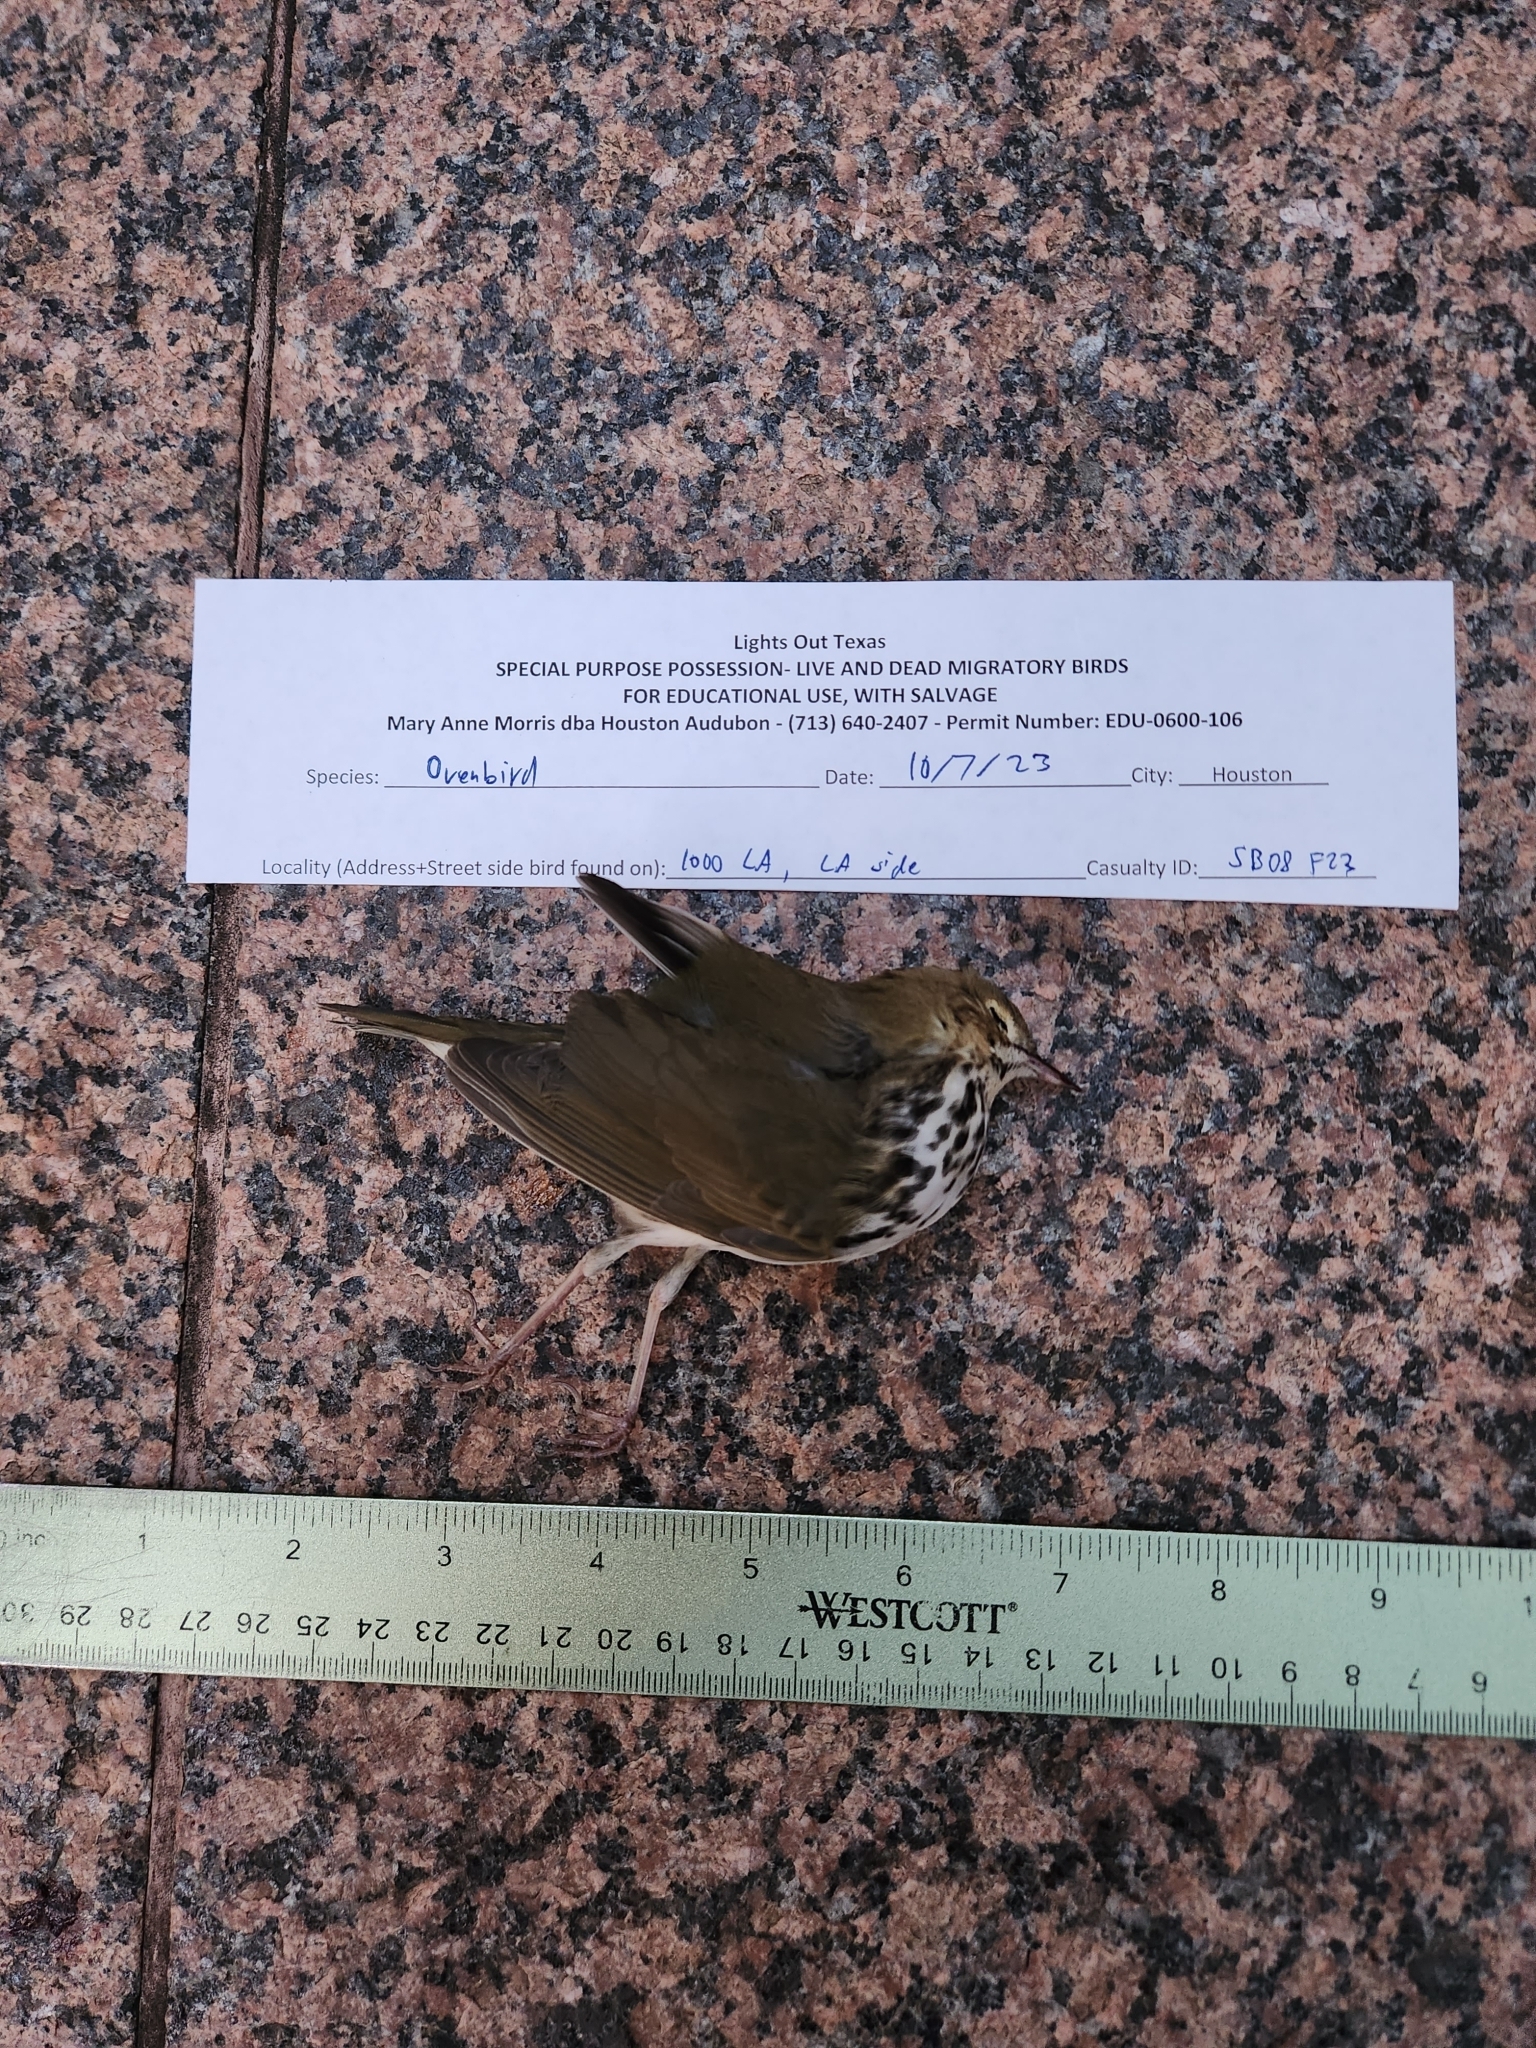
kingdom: Animalia
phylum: Chordata
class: Aves
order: Passeriformes
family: Parulidae
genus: Seiurus
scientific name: Seiurus aurocapilla
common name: Ovenbird
